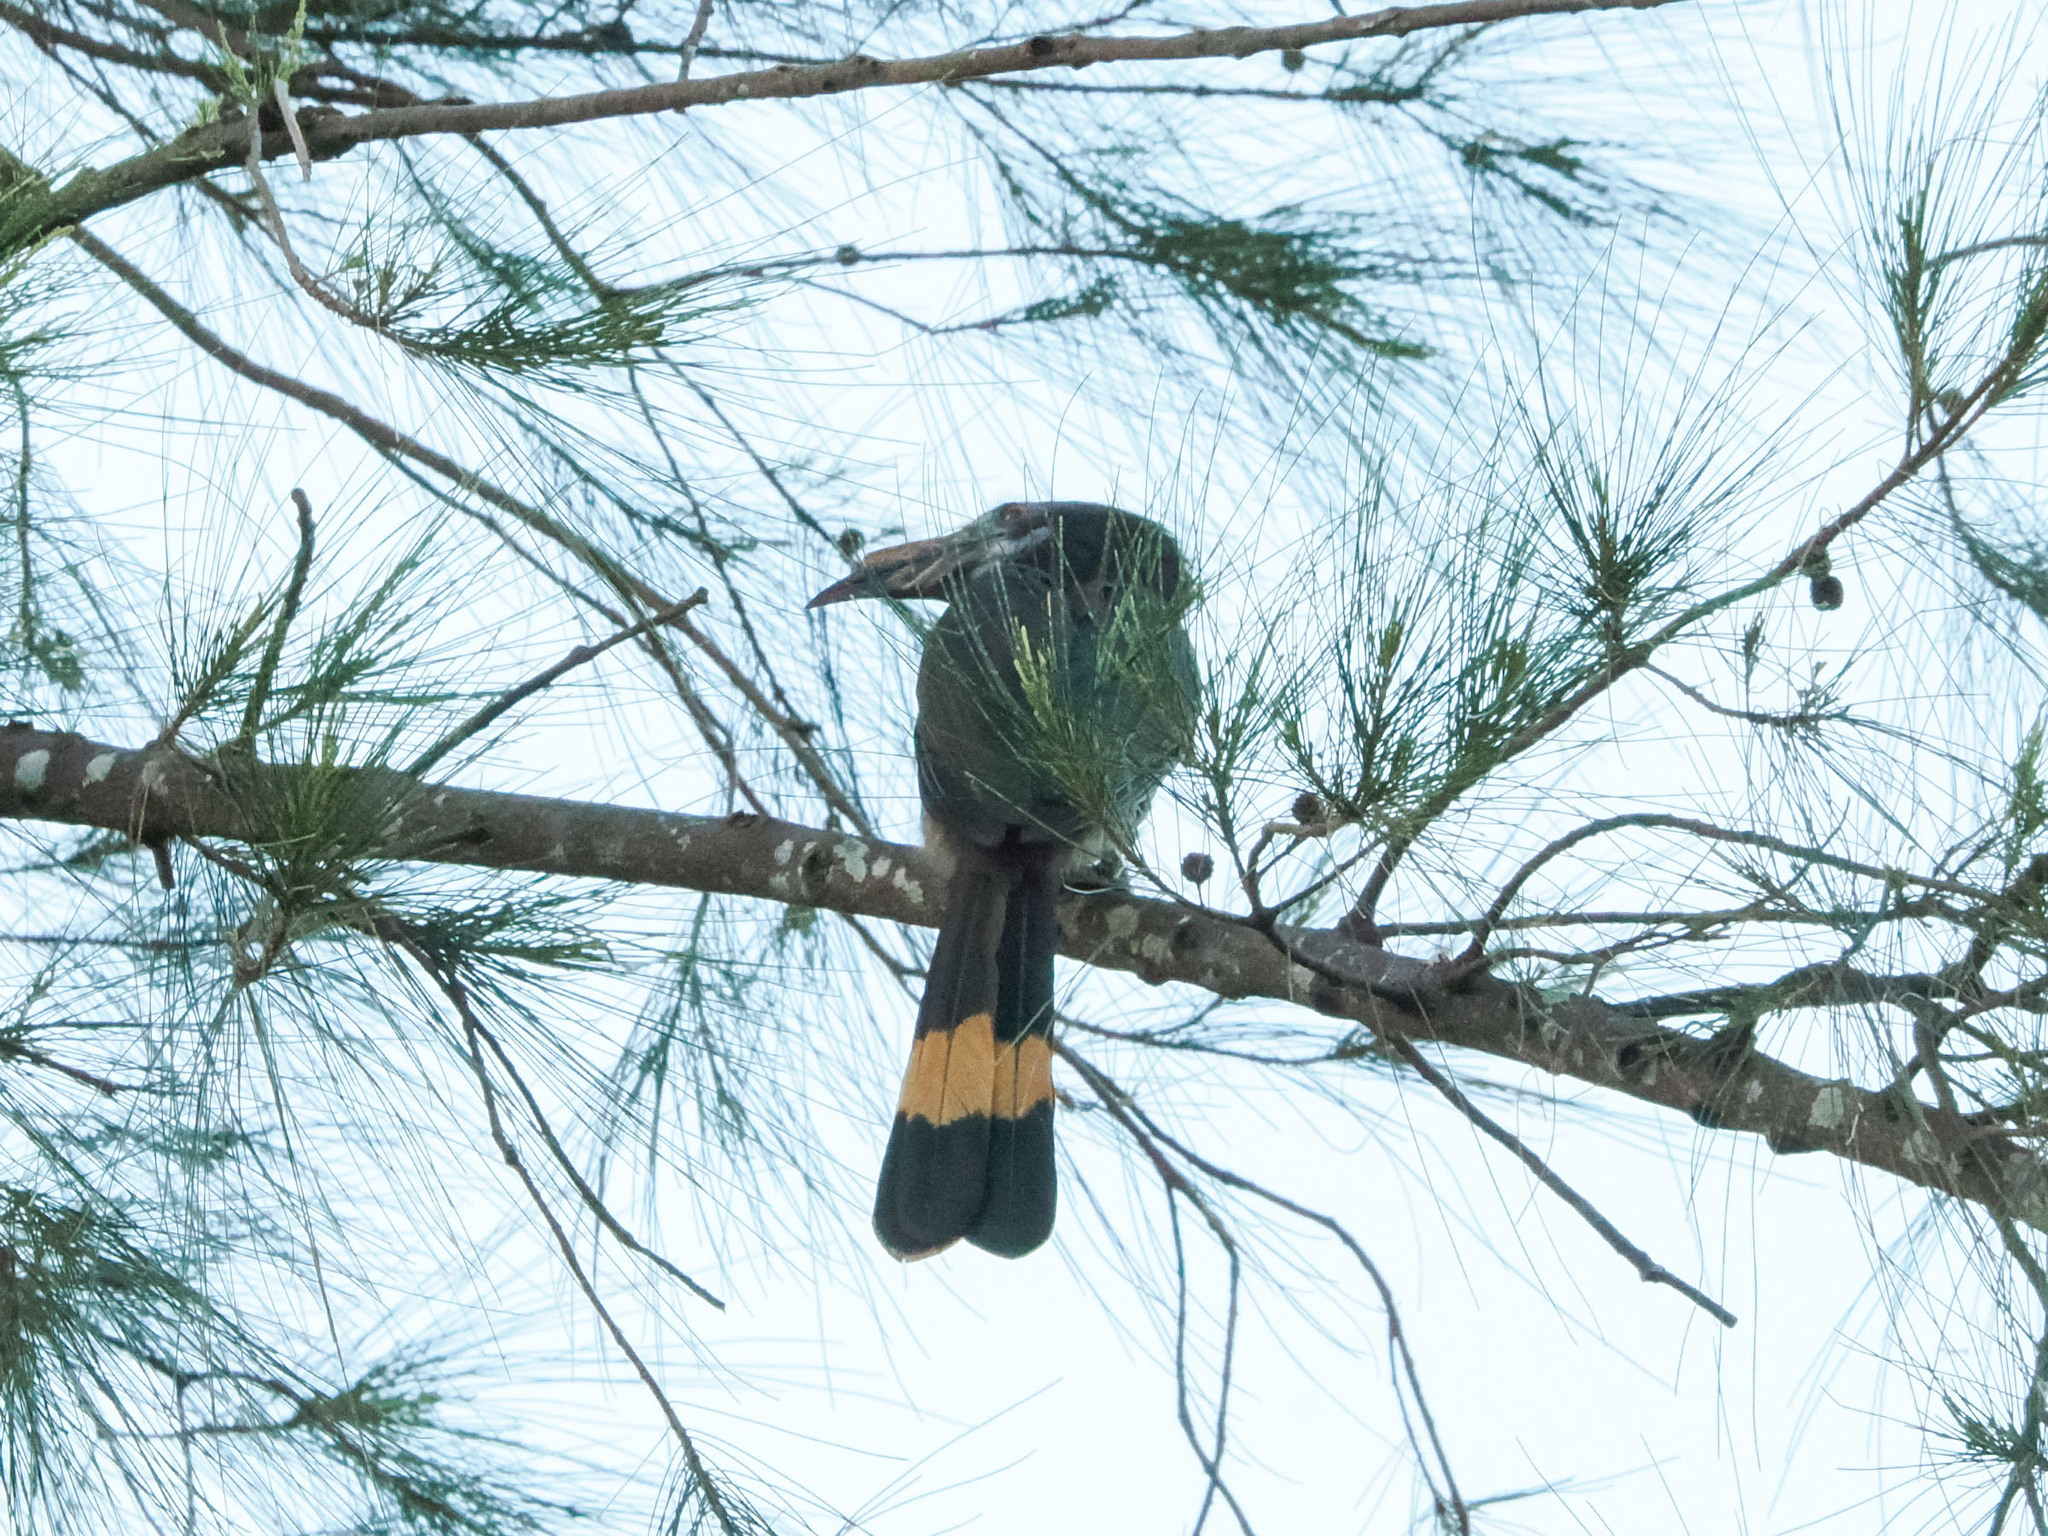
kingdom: Animalia
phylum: Chordata
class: Aves
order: Bucerotiformes
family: Bucerotidae
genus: Penelopides
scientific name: Penelopides mindorensis
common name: Mindoro hornbill
